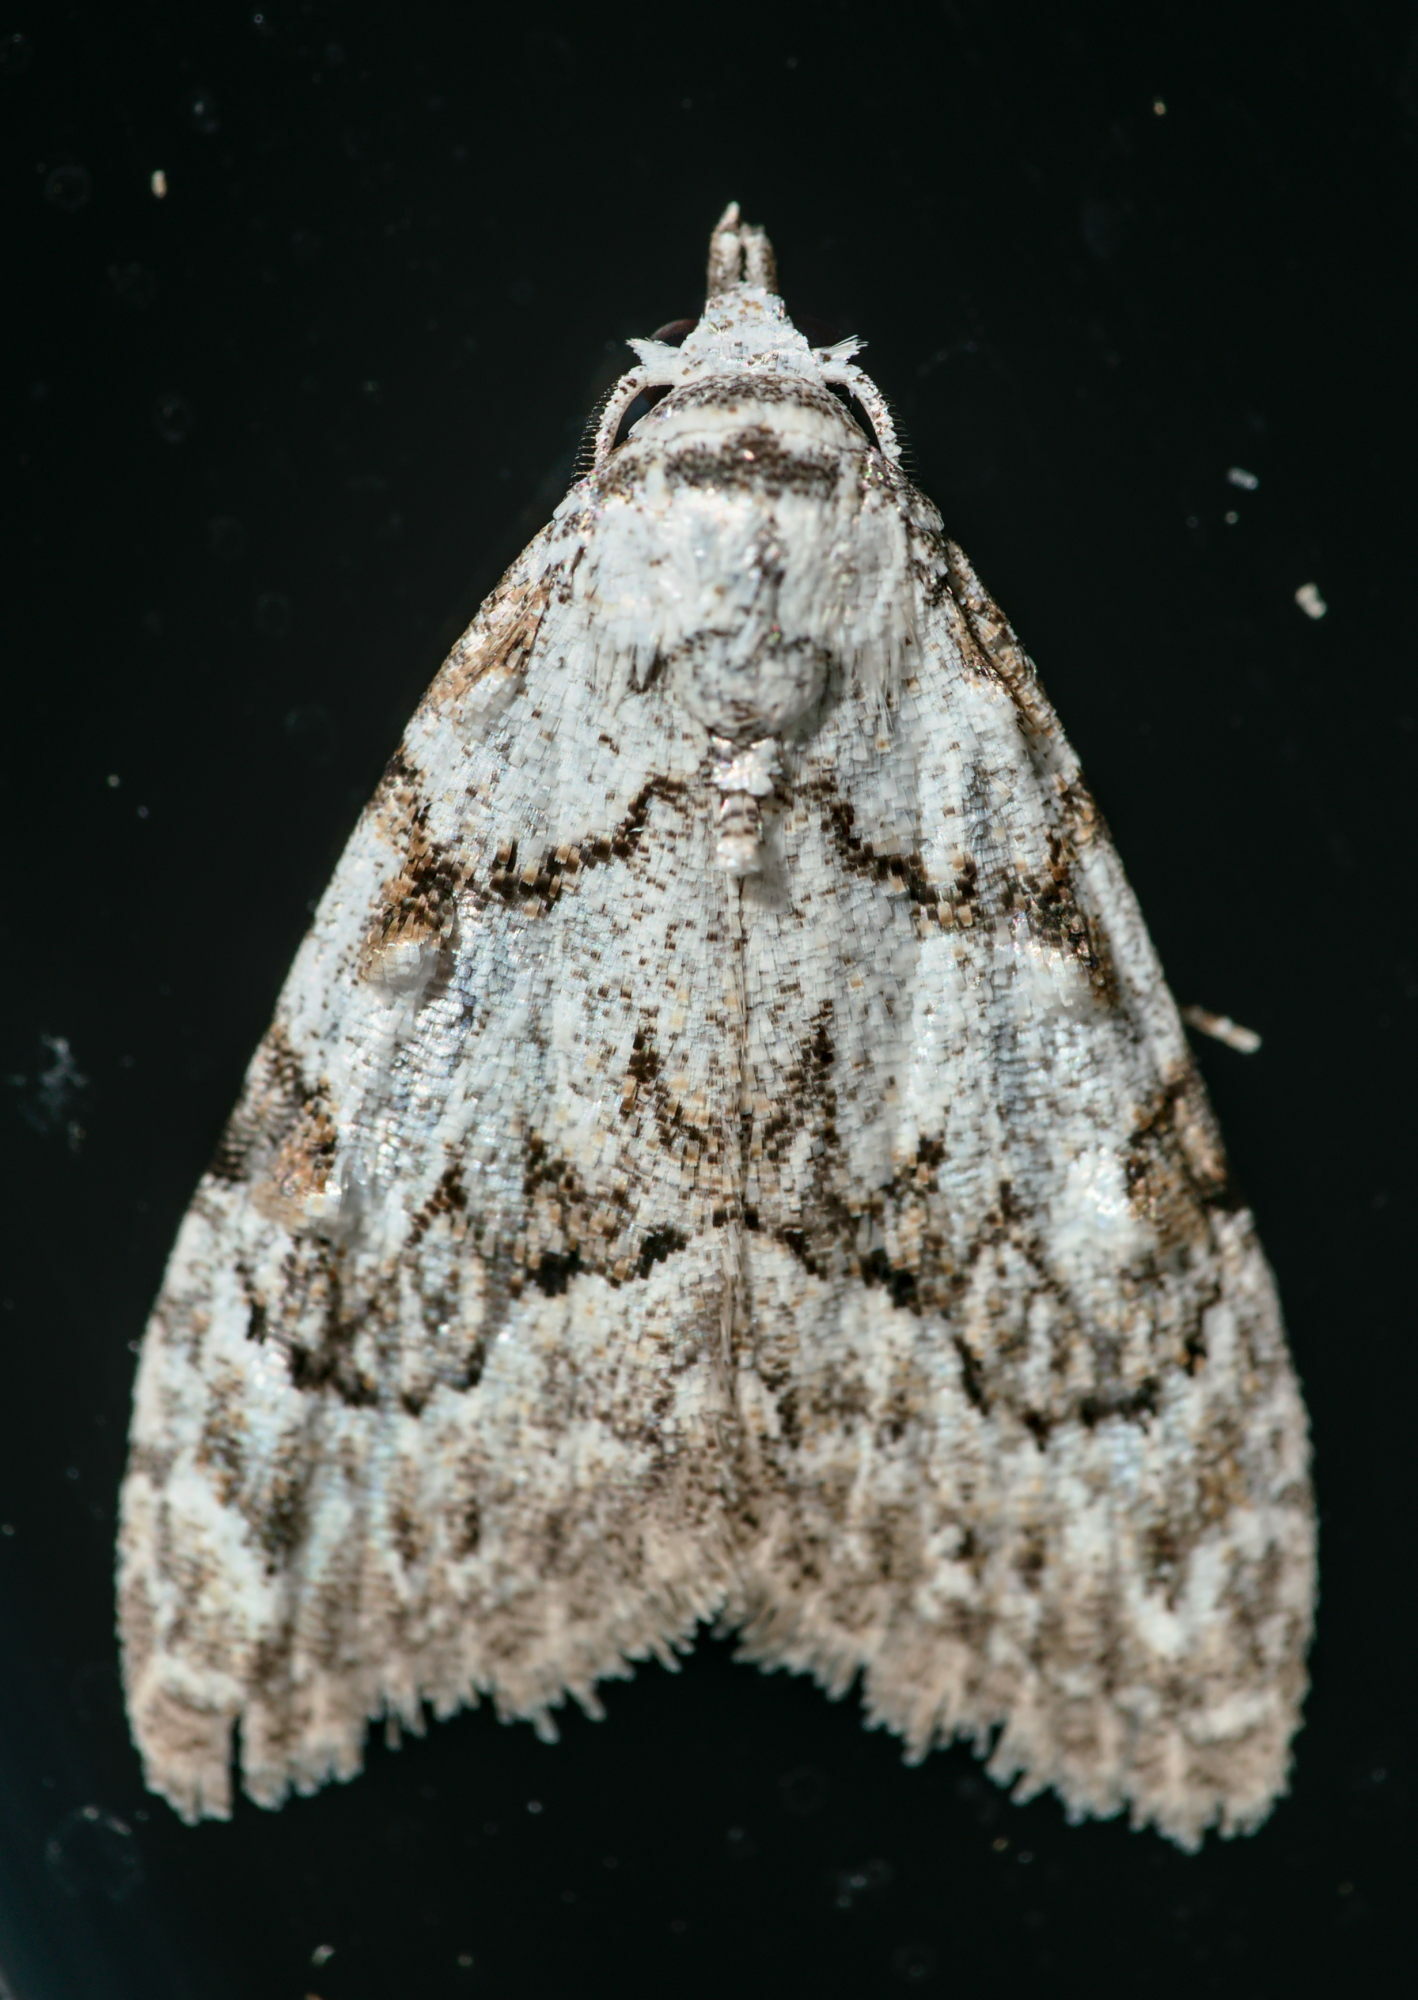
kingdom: Animalia
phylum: Arthropoda
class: Insecta
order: Lepidoptera
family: Nolidae
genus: Nola
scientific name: Nola confusalis
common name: Least black arches
